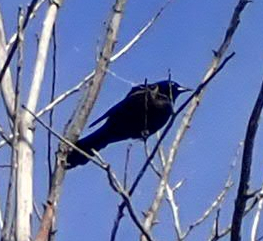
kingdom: Animalia
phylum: Chordata
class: Aves
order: Passeriformes
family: Icteridae
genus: Quiscalus
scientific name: Quiscalus quiscula
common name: Common grackle
